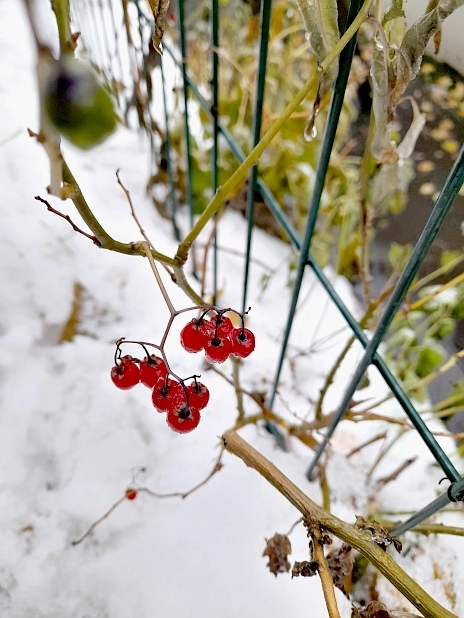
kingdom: Plantae
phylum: Tracheophyta
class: Magnoliopsida
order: Solanales
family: Solanaceae
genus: Solanum
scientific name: Solanum dulcamara
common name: Climbing nightshade
